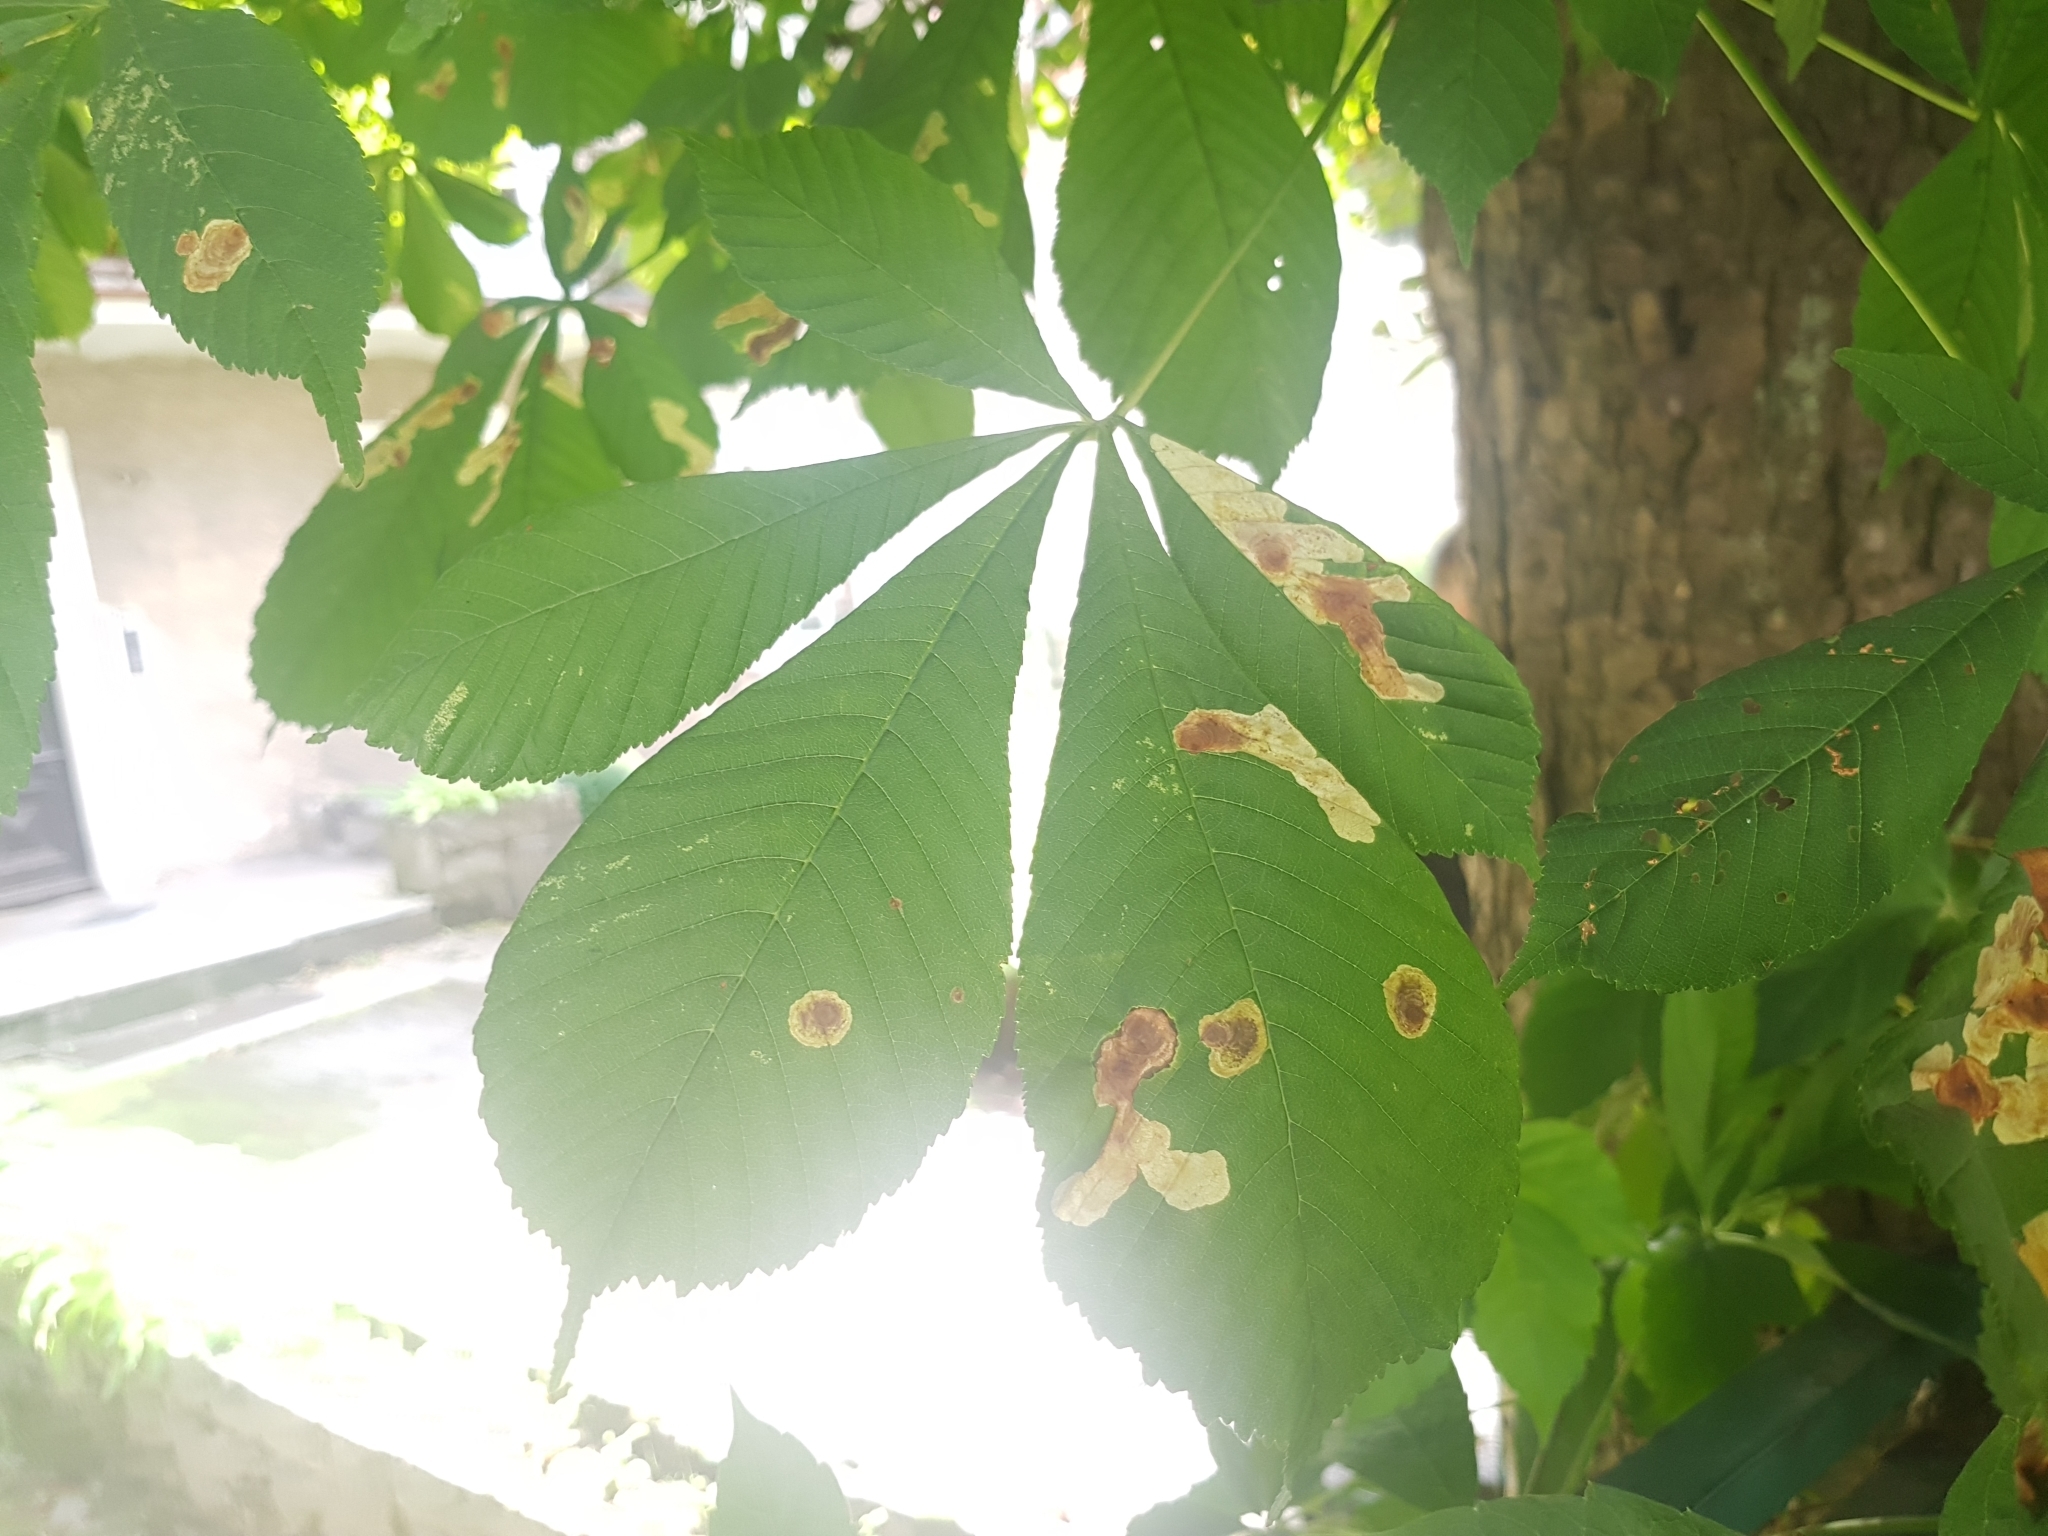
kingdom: Animalia
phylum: Arthropoda
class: Insecta
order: Lepidoptera
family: Gracillariidae
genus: Cameraria
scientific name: Cameraria ohridella
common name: Horse-chestnut leaf-miner
